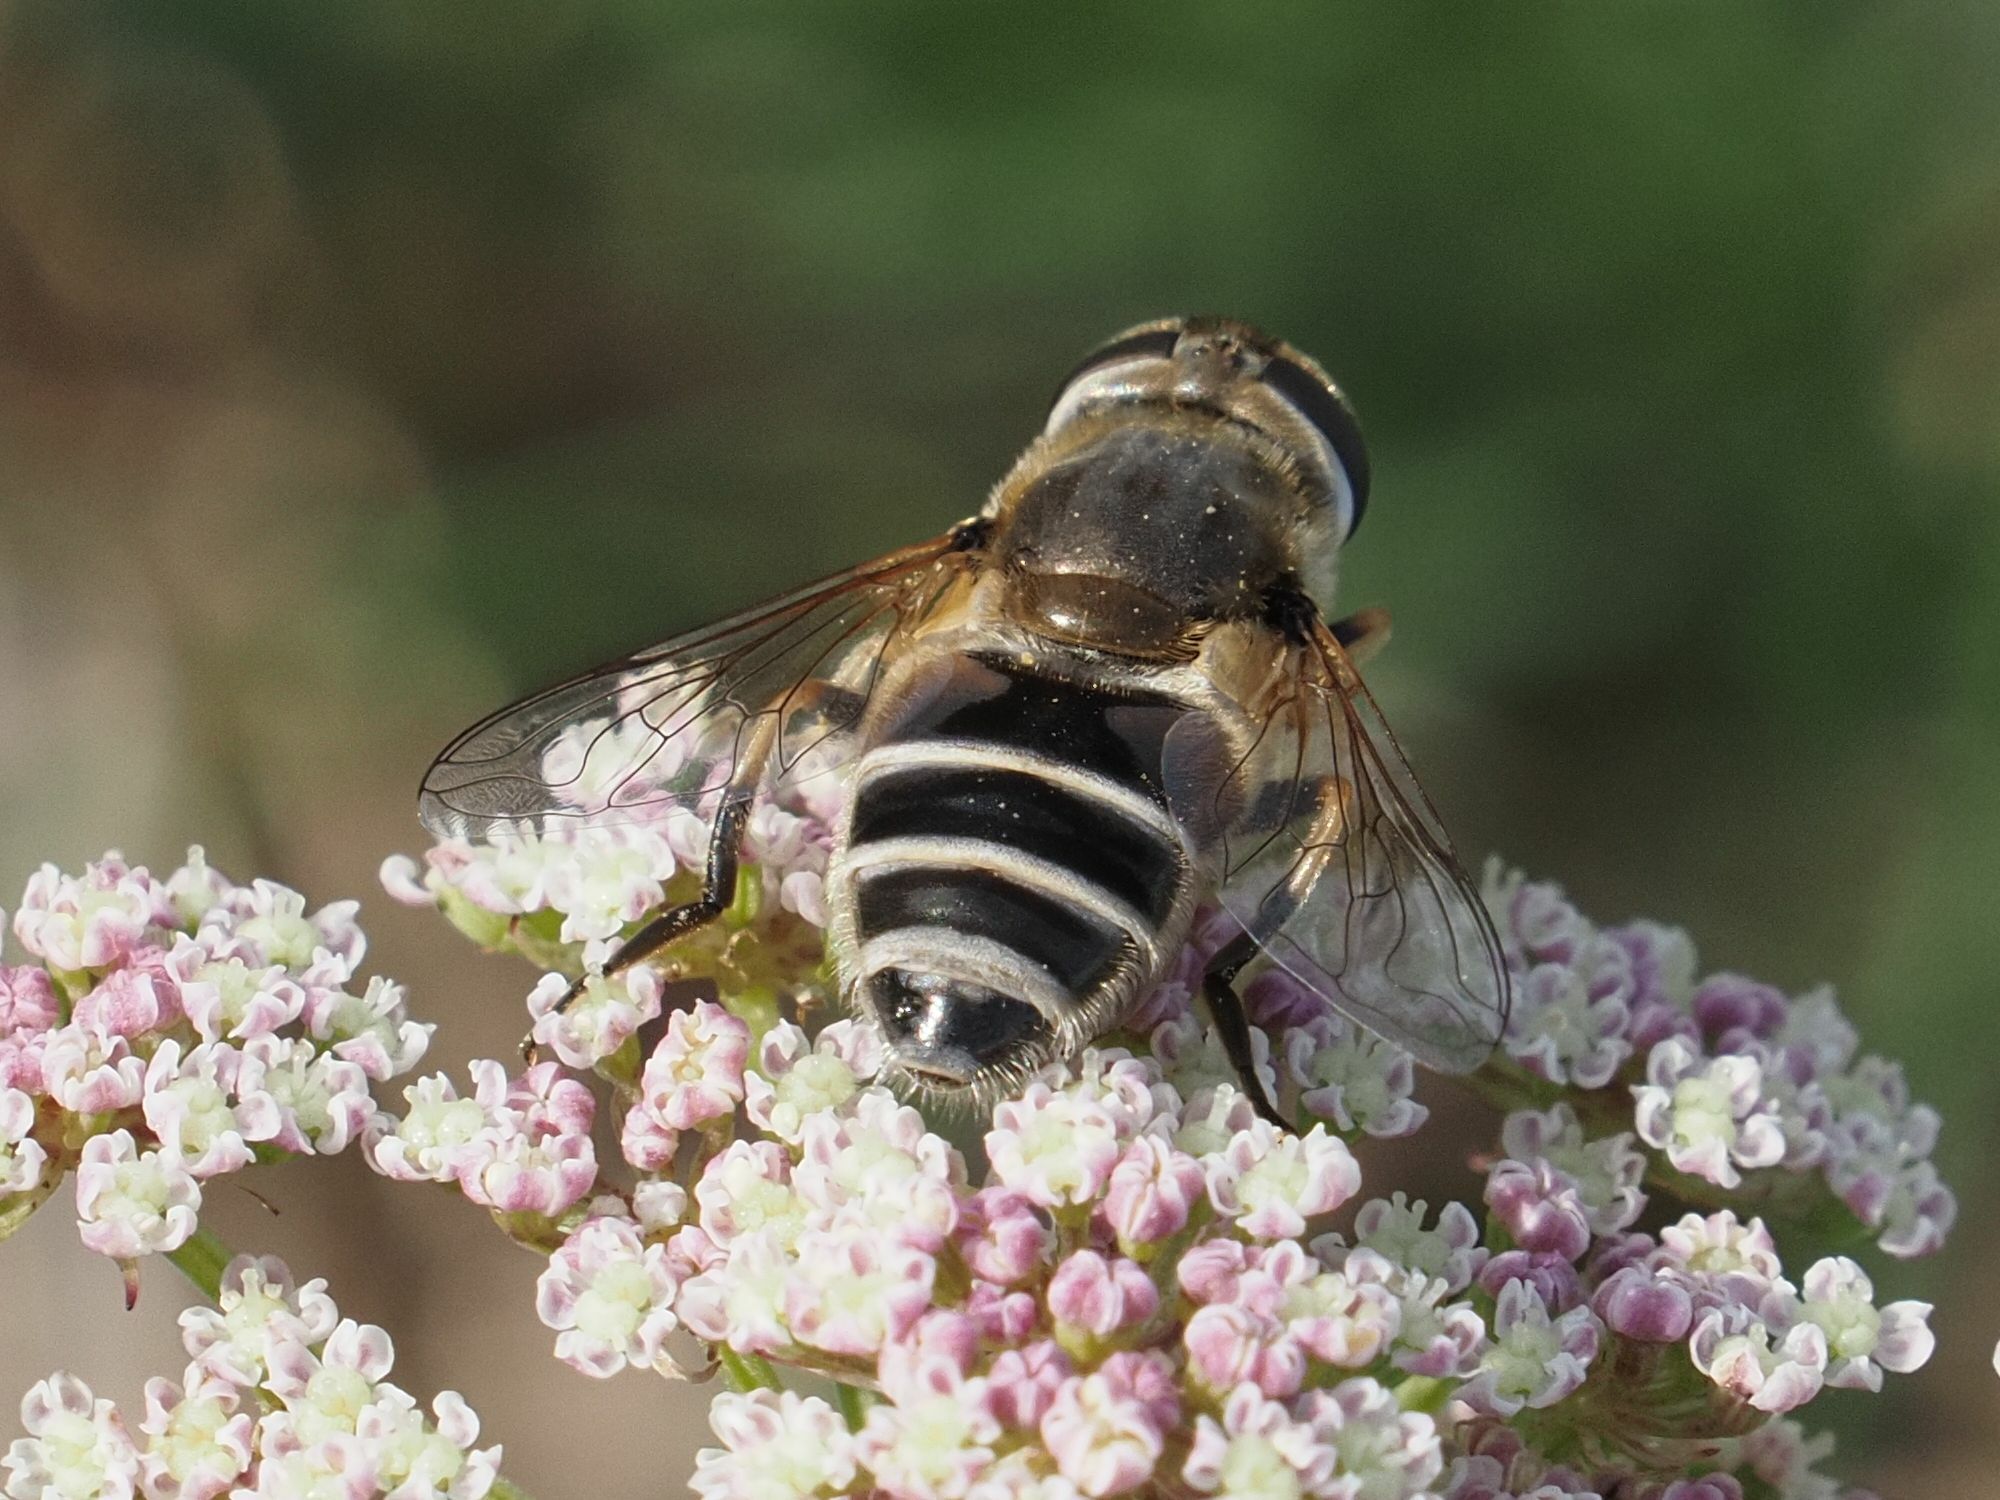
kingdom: Animalia
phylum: Arthropoda
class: Insecta
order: Diptera
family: Syrphidae
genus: Eristalis
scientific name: Eristalis arbustorum
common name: Hover fly
